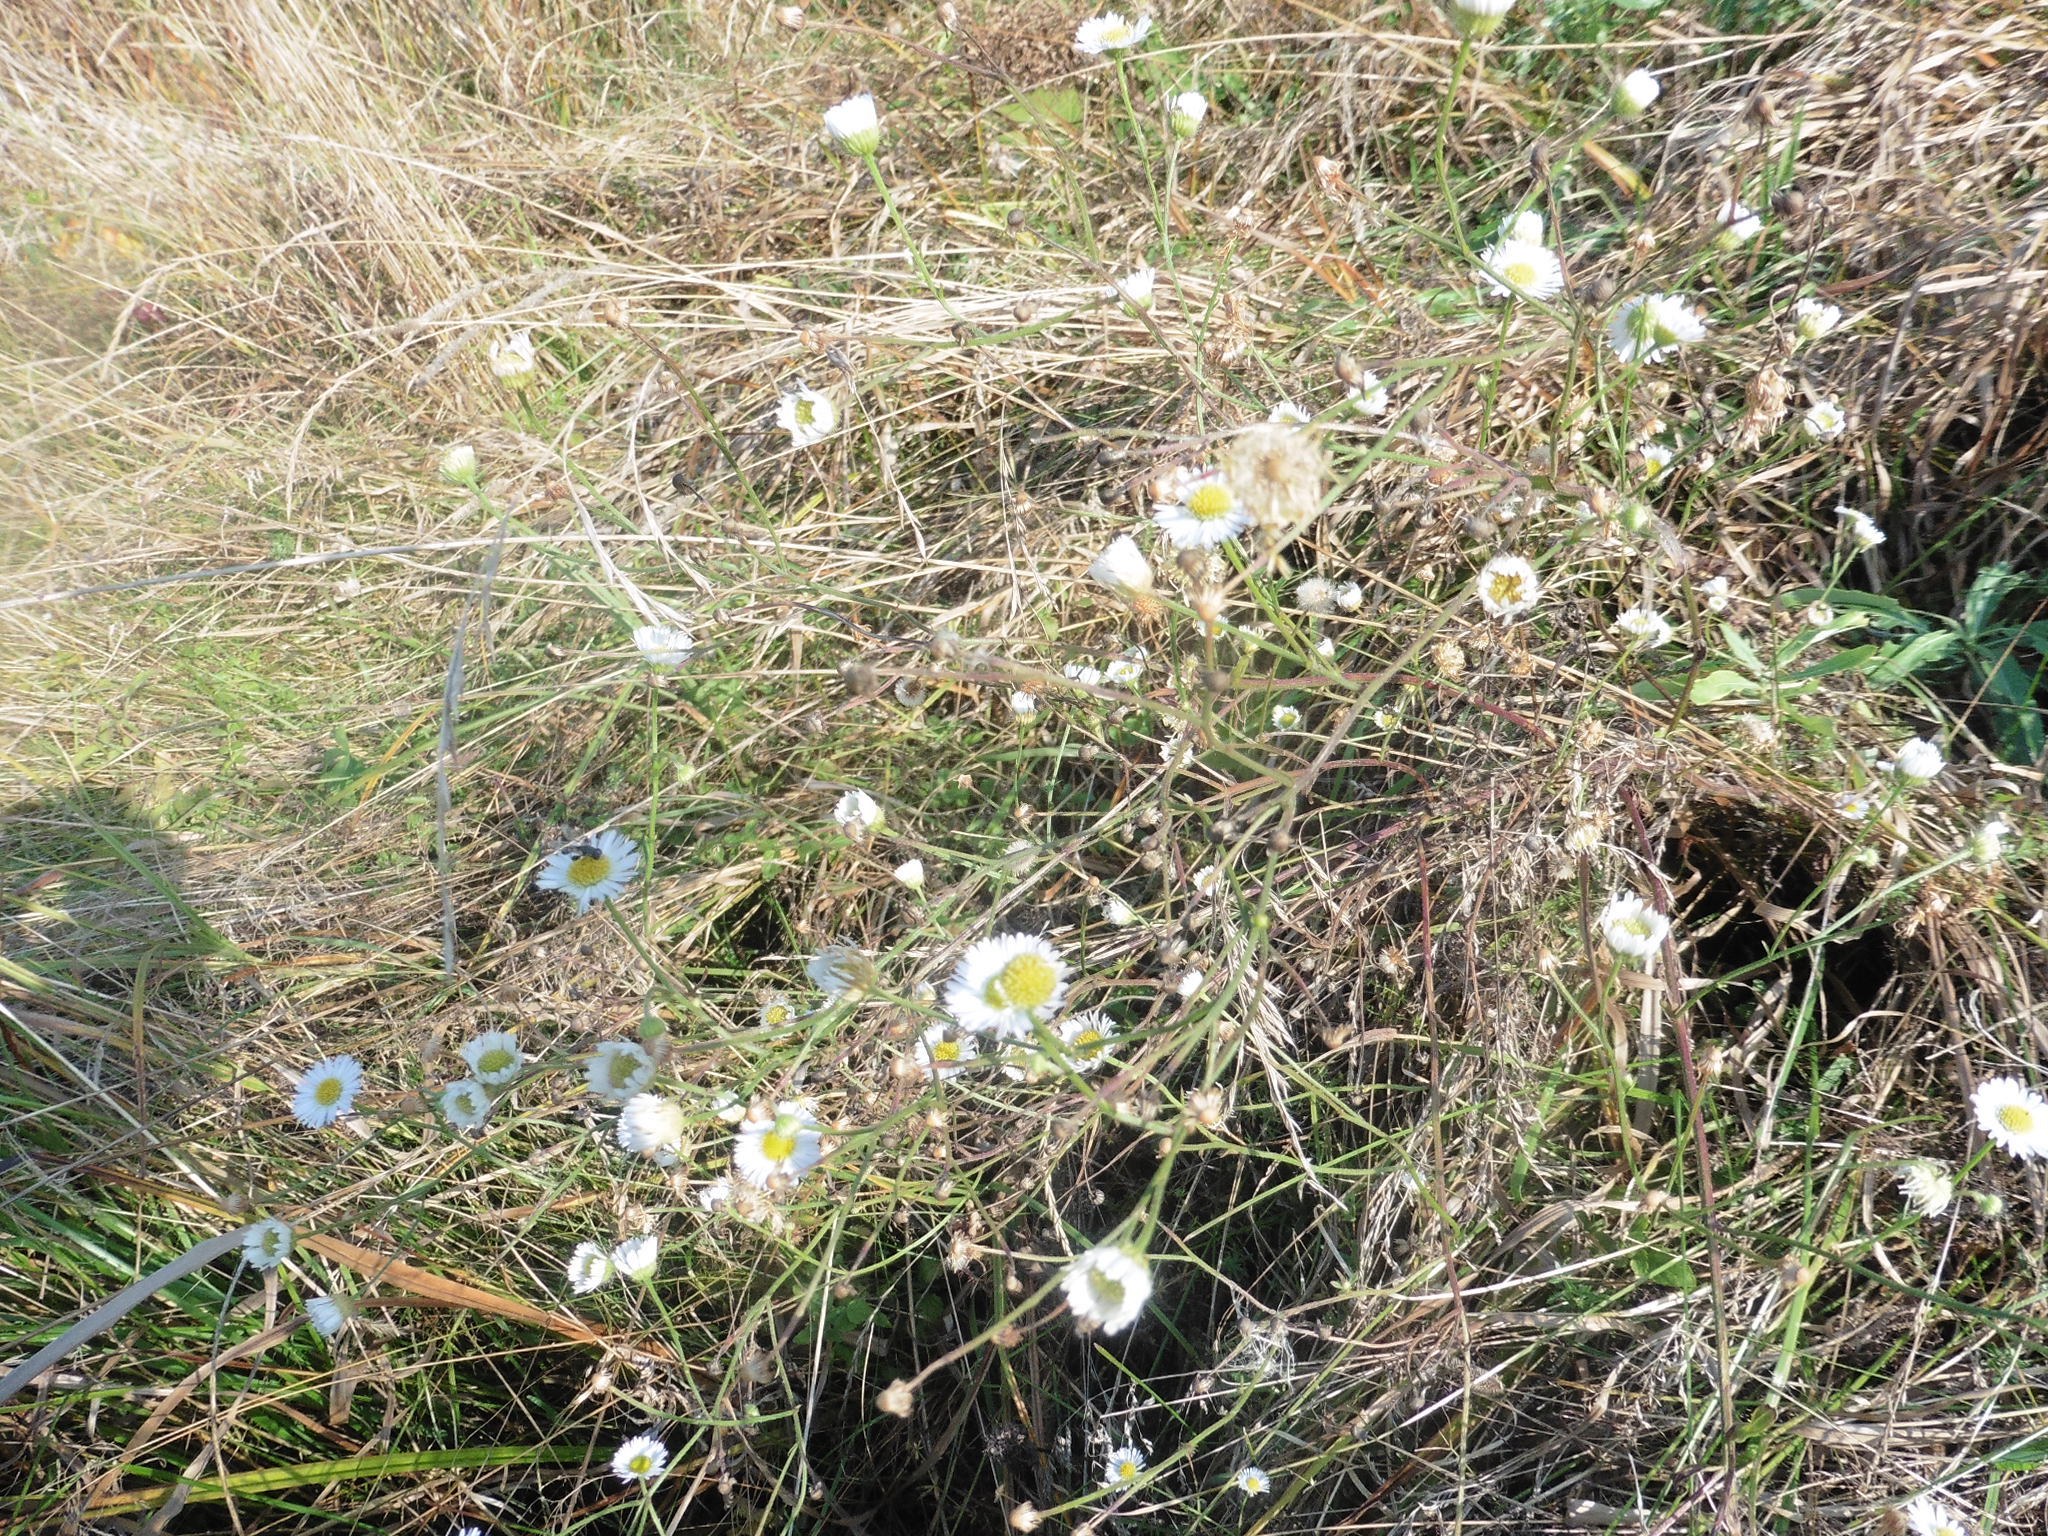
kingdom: Plantae
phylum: Tracheophyta
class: Magnoliopsida
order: Asterales
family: Asteraceae
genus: Erigeron
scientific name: Erigeron strigosus
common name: Common eastern fleabane
